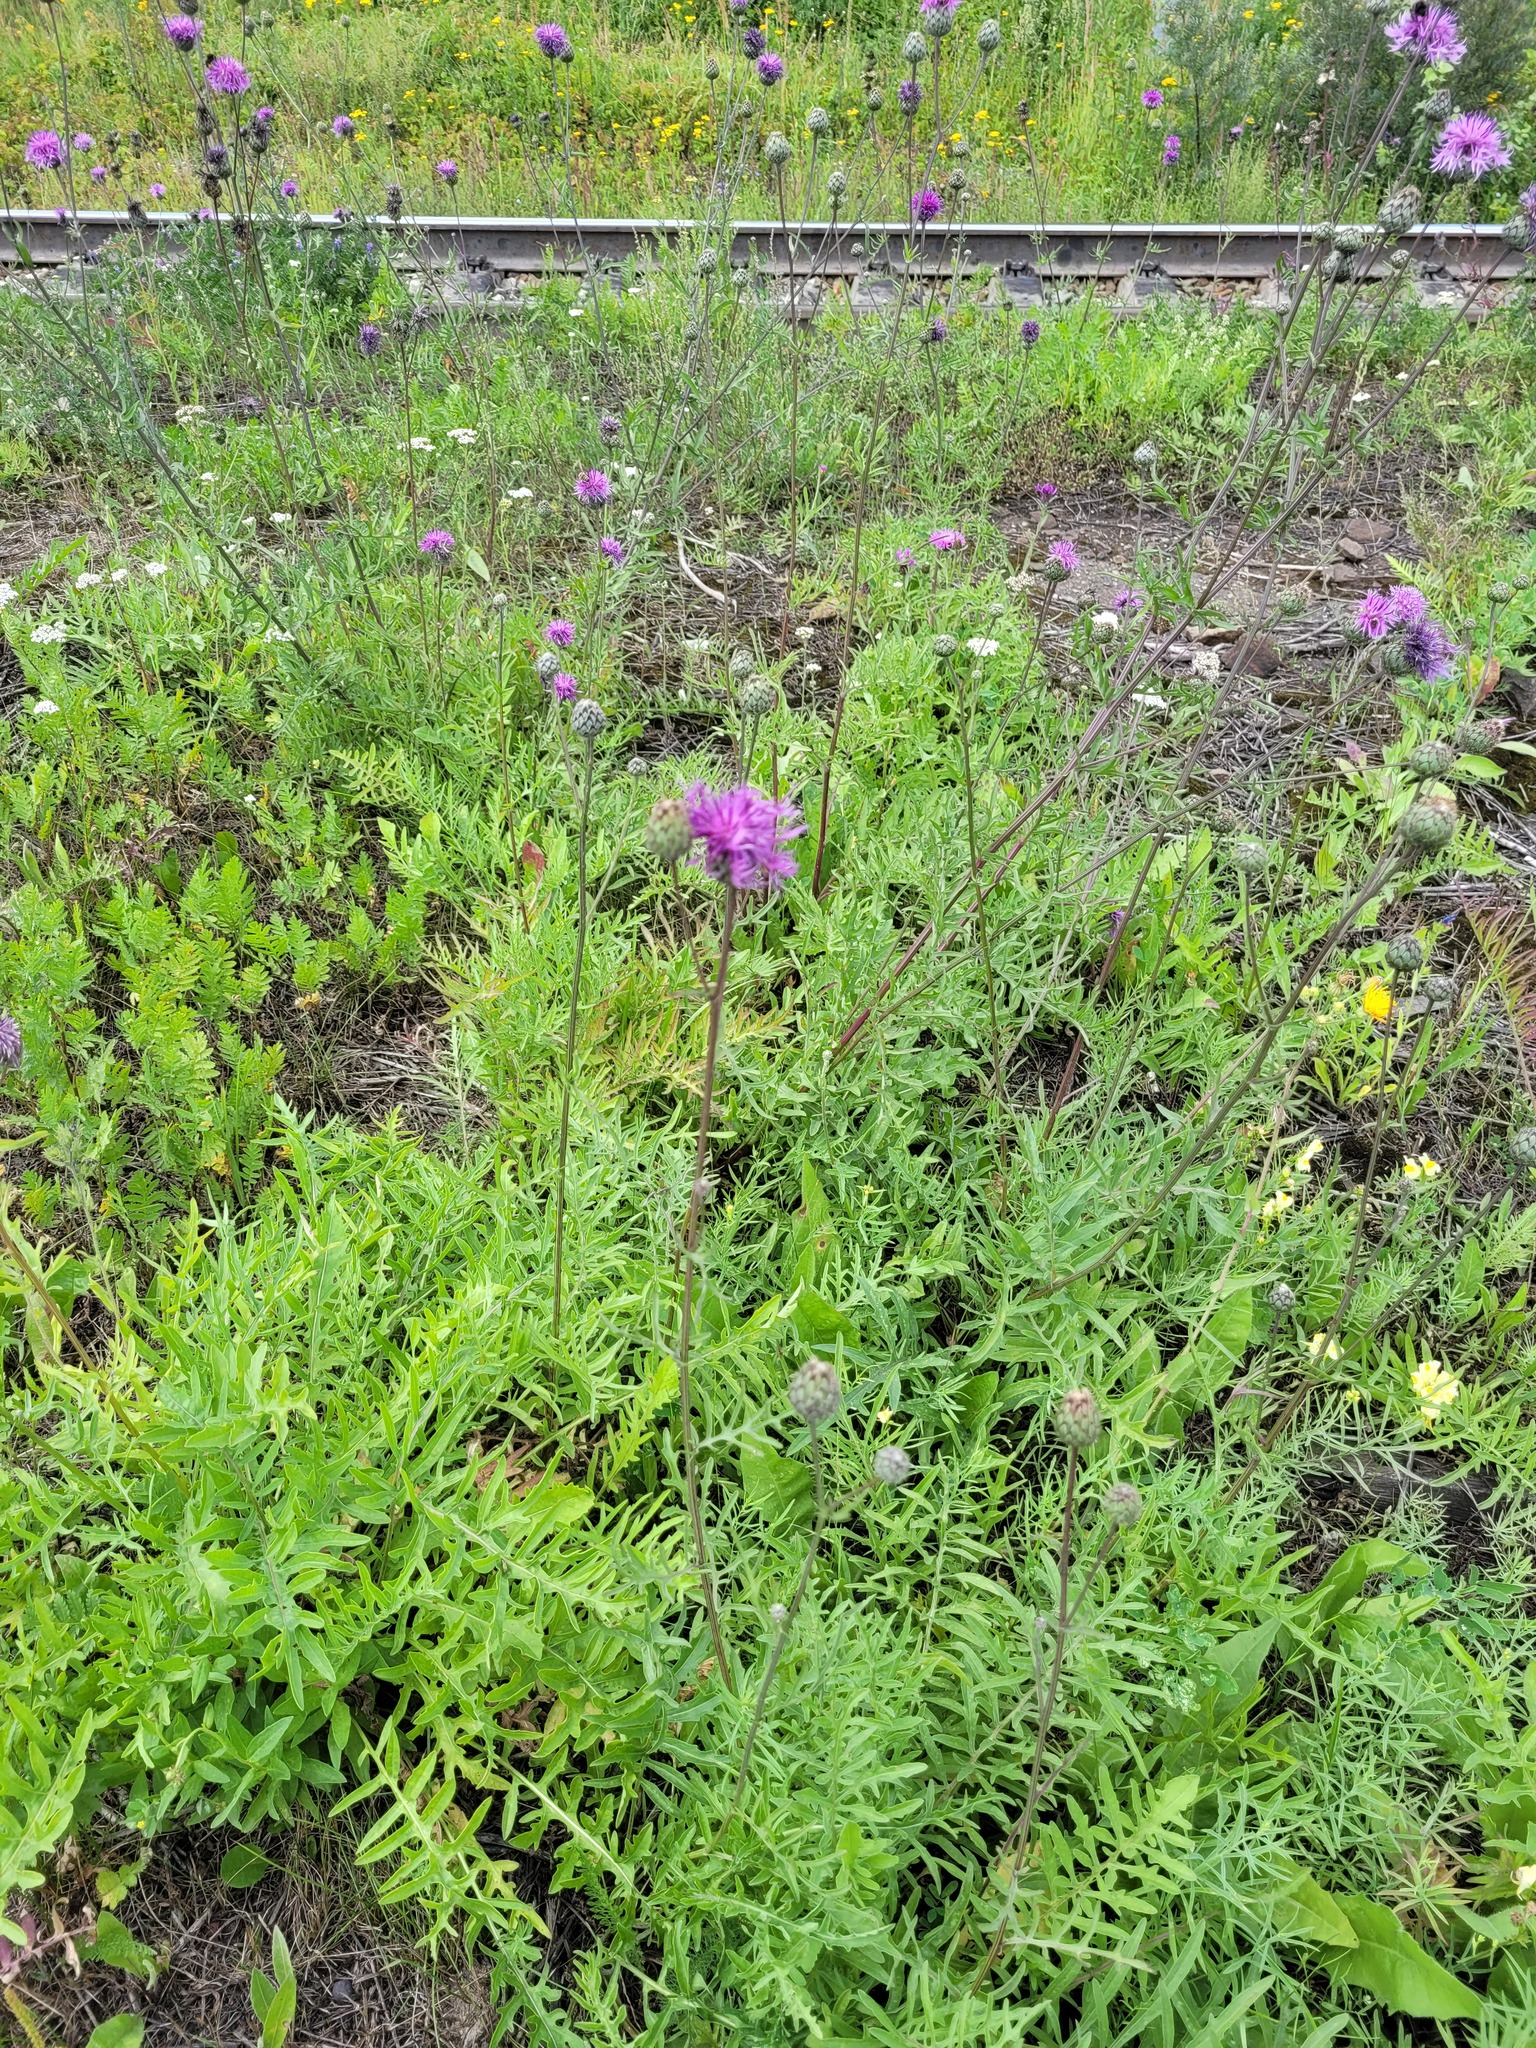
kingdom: Plantae
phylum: Tracheophyta
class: Magnoliopsida
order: Asterales
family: Asteraceae
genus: Centaurea
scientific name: Centaurea scabiosa
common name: Greater knapweed
